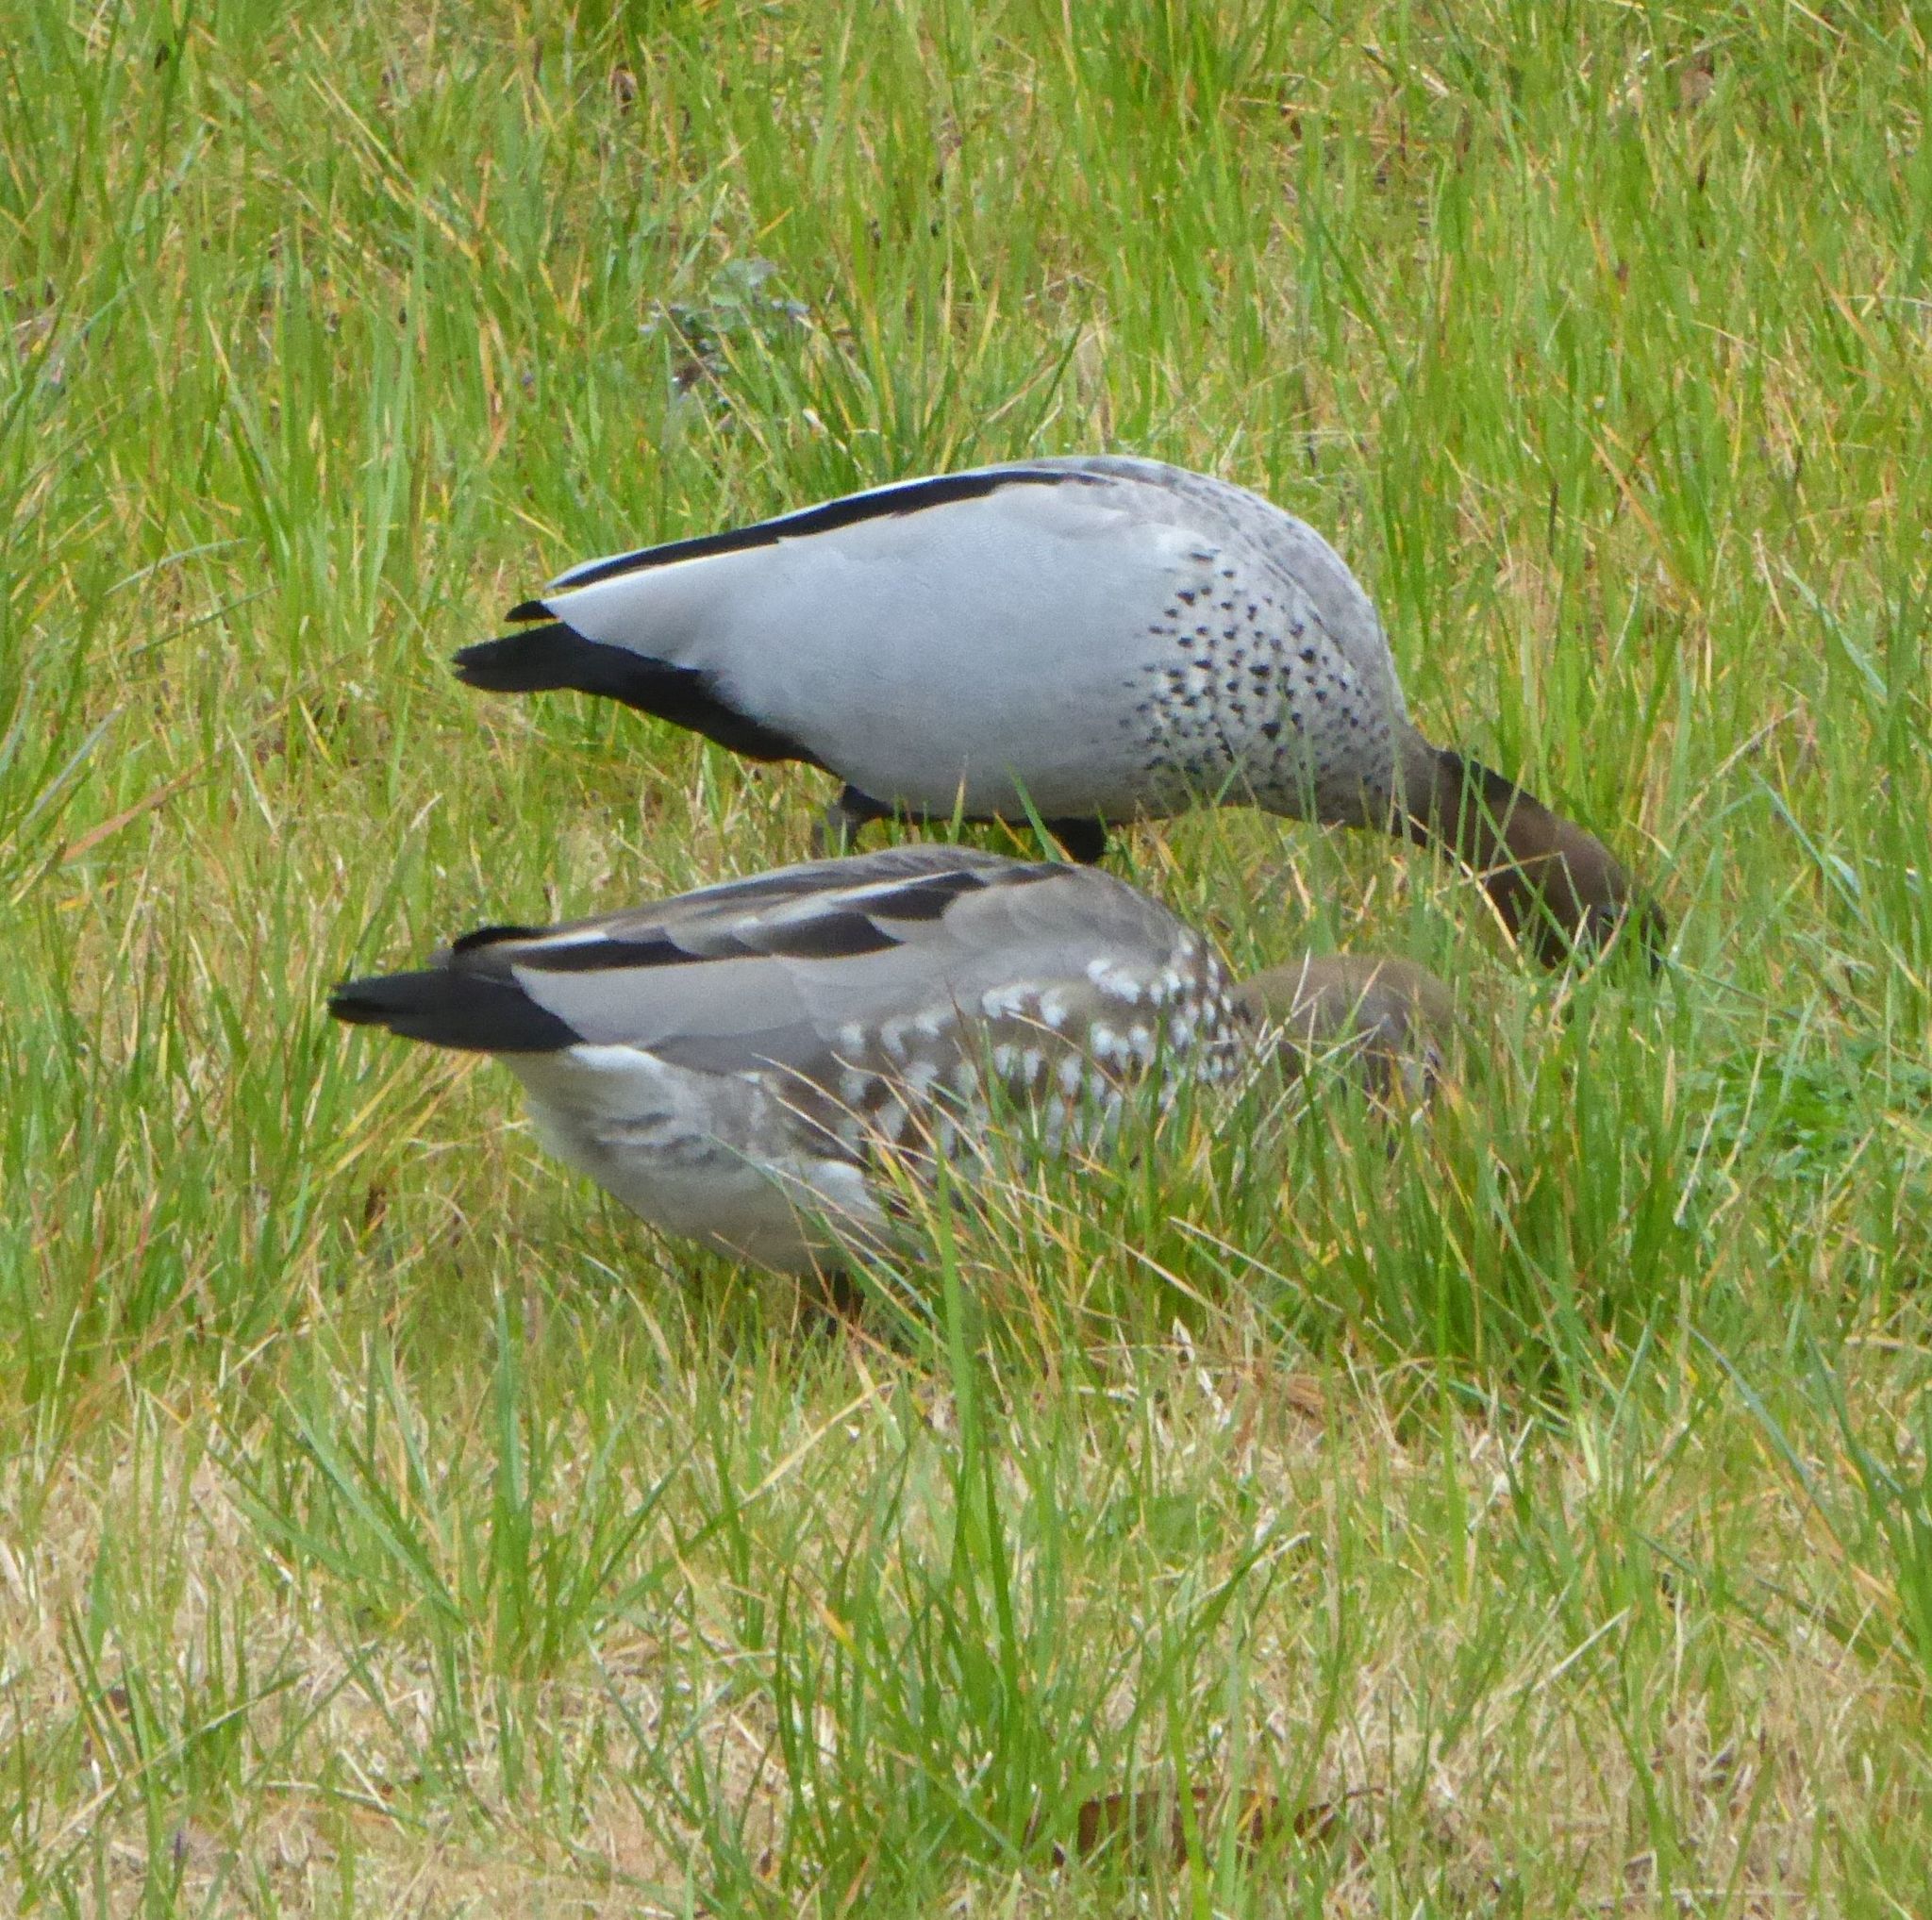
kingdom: Animalia
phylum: Chordata
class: Aves
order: Anseriformes
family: Anatidae
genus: Chenonetta
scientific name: Chenonetta jubata
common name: Maned duck
